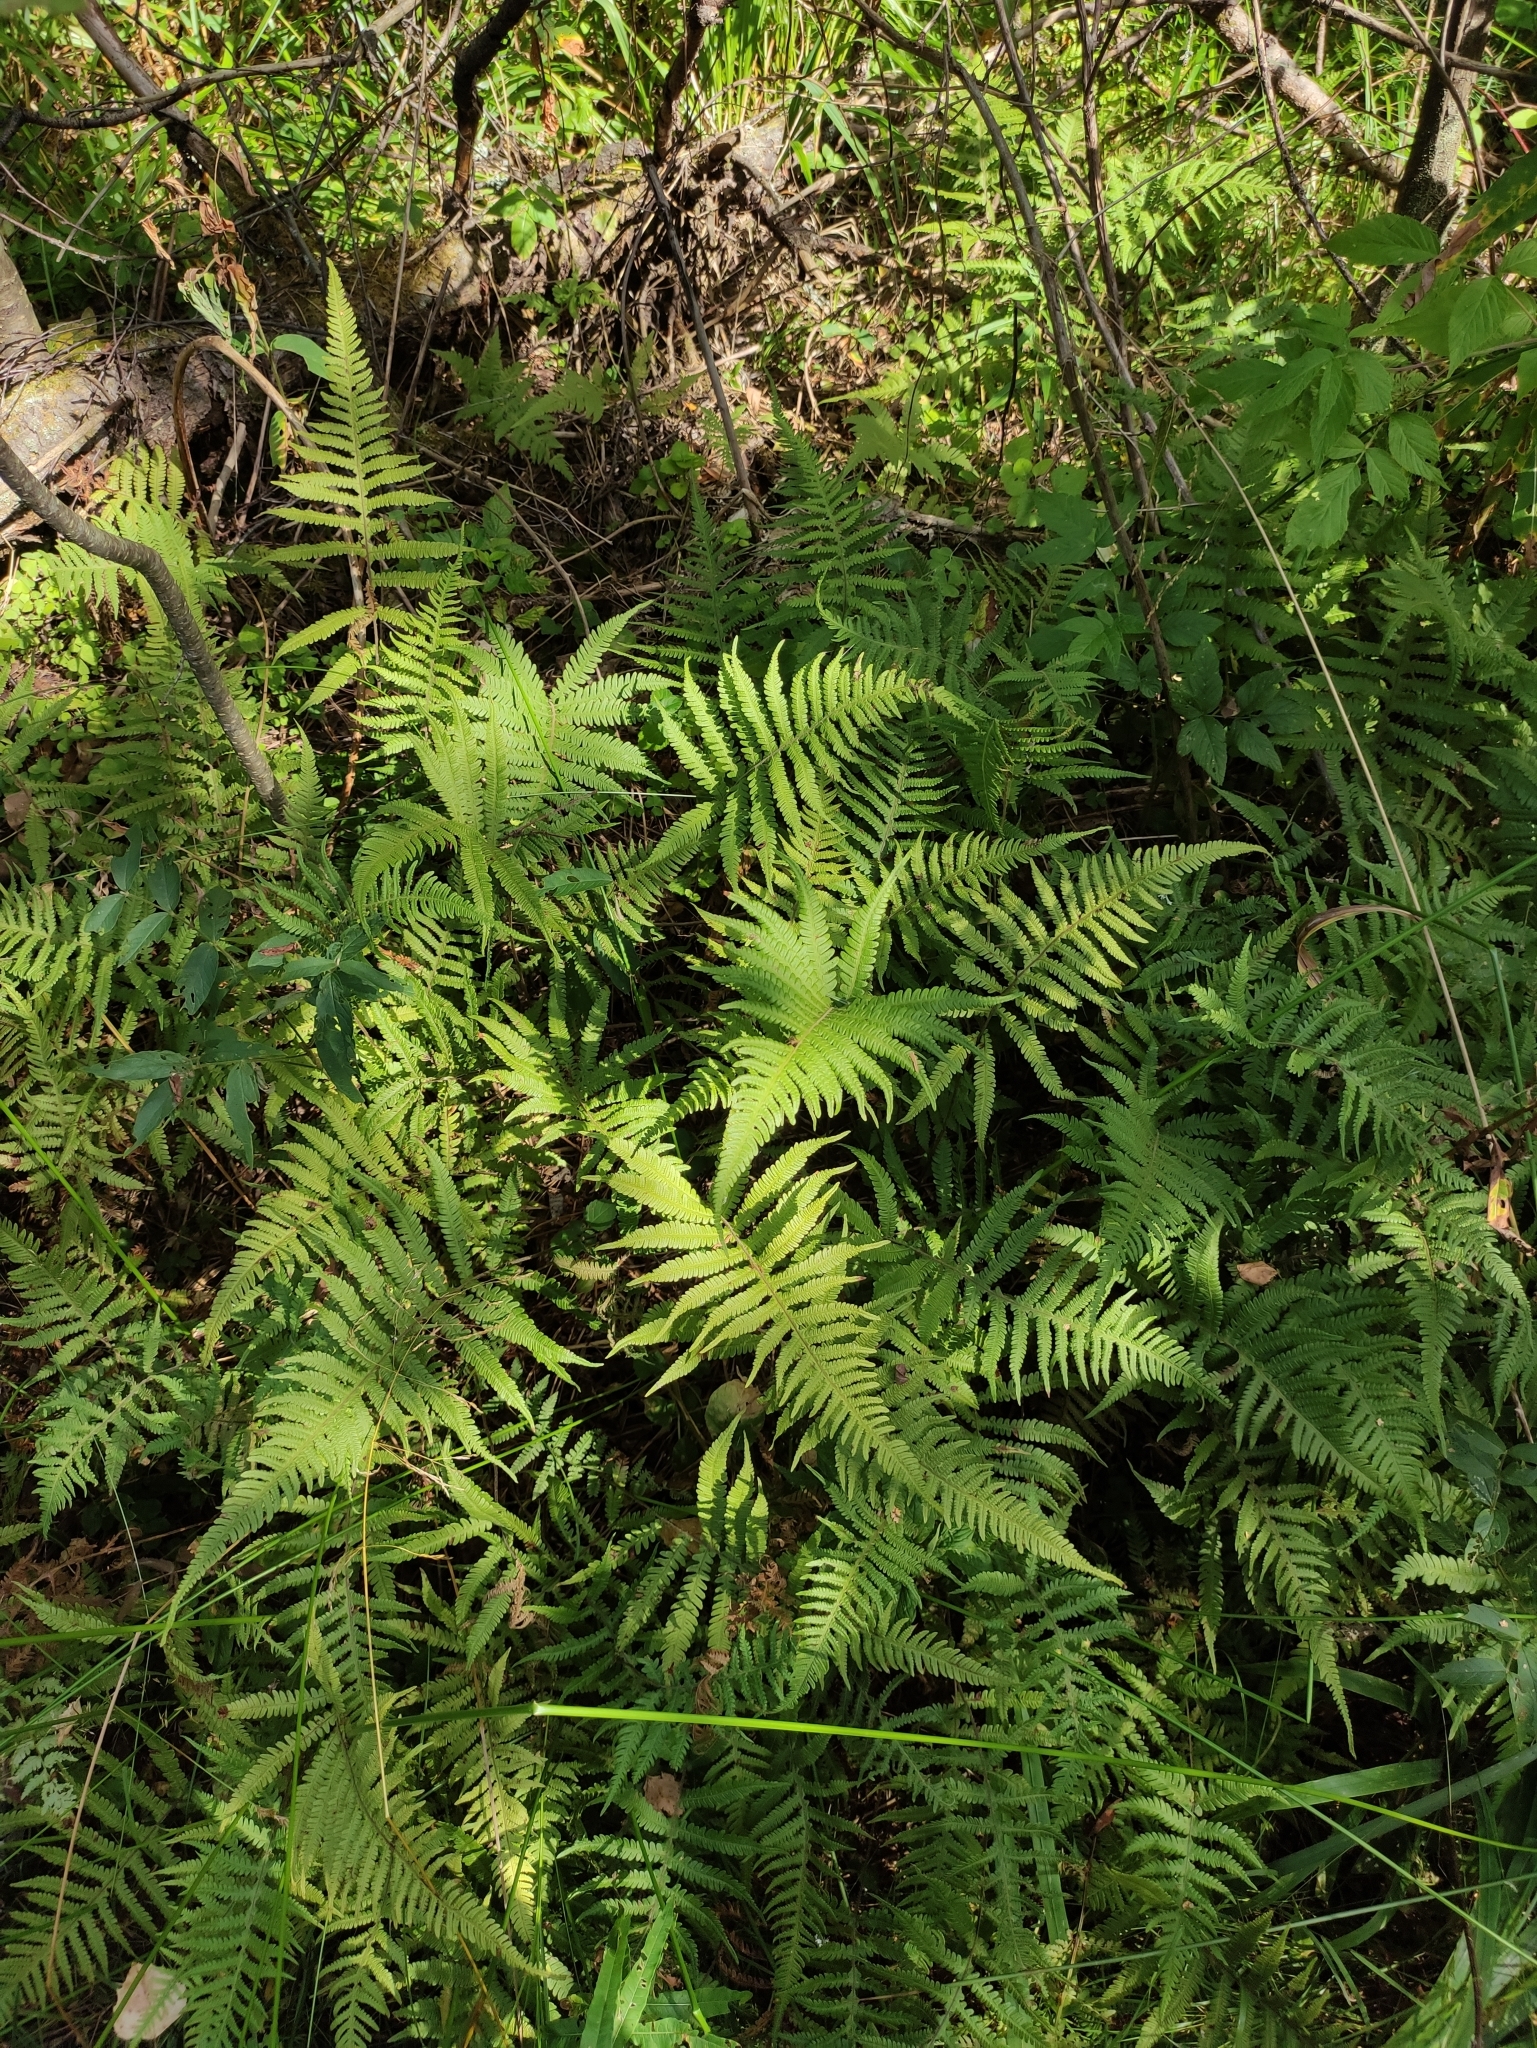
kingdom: Plantae
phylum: Tracheophyta
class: Polypodiopsida
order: Polypodiales
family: Thelypteridaceae
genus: Phegopteris
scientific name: Phegopteris connectilis
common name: Beech fern
